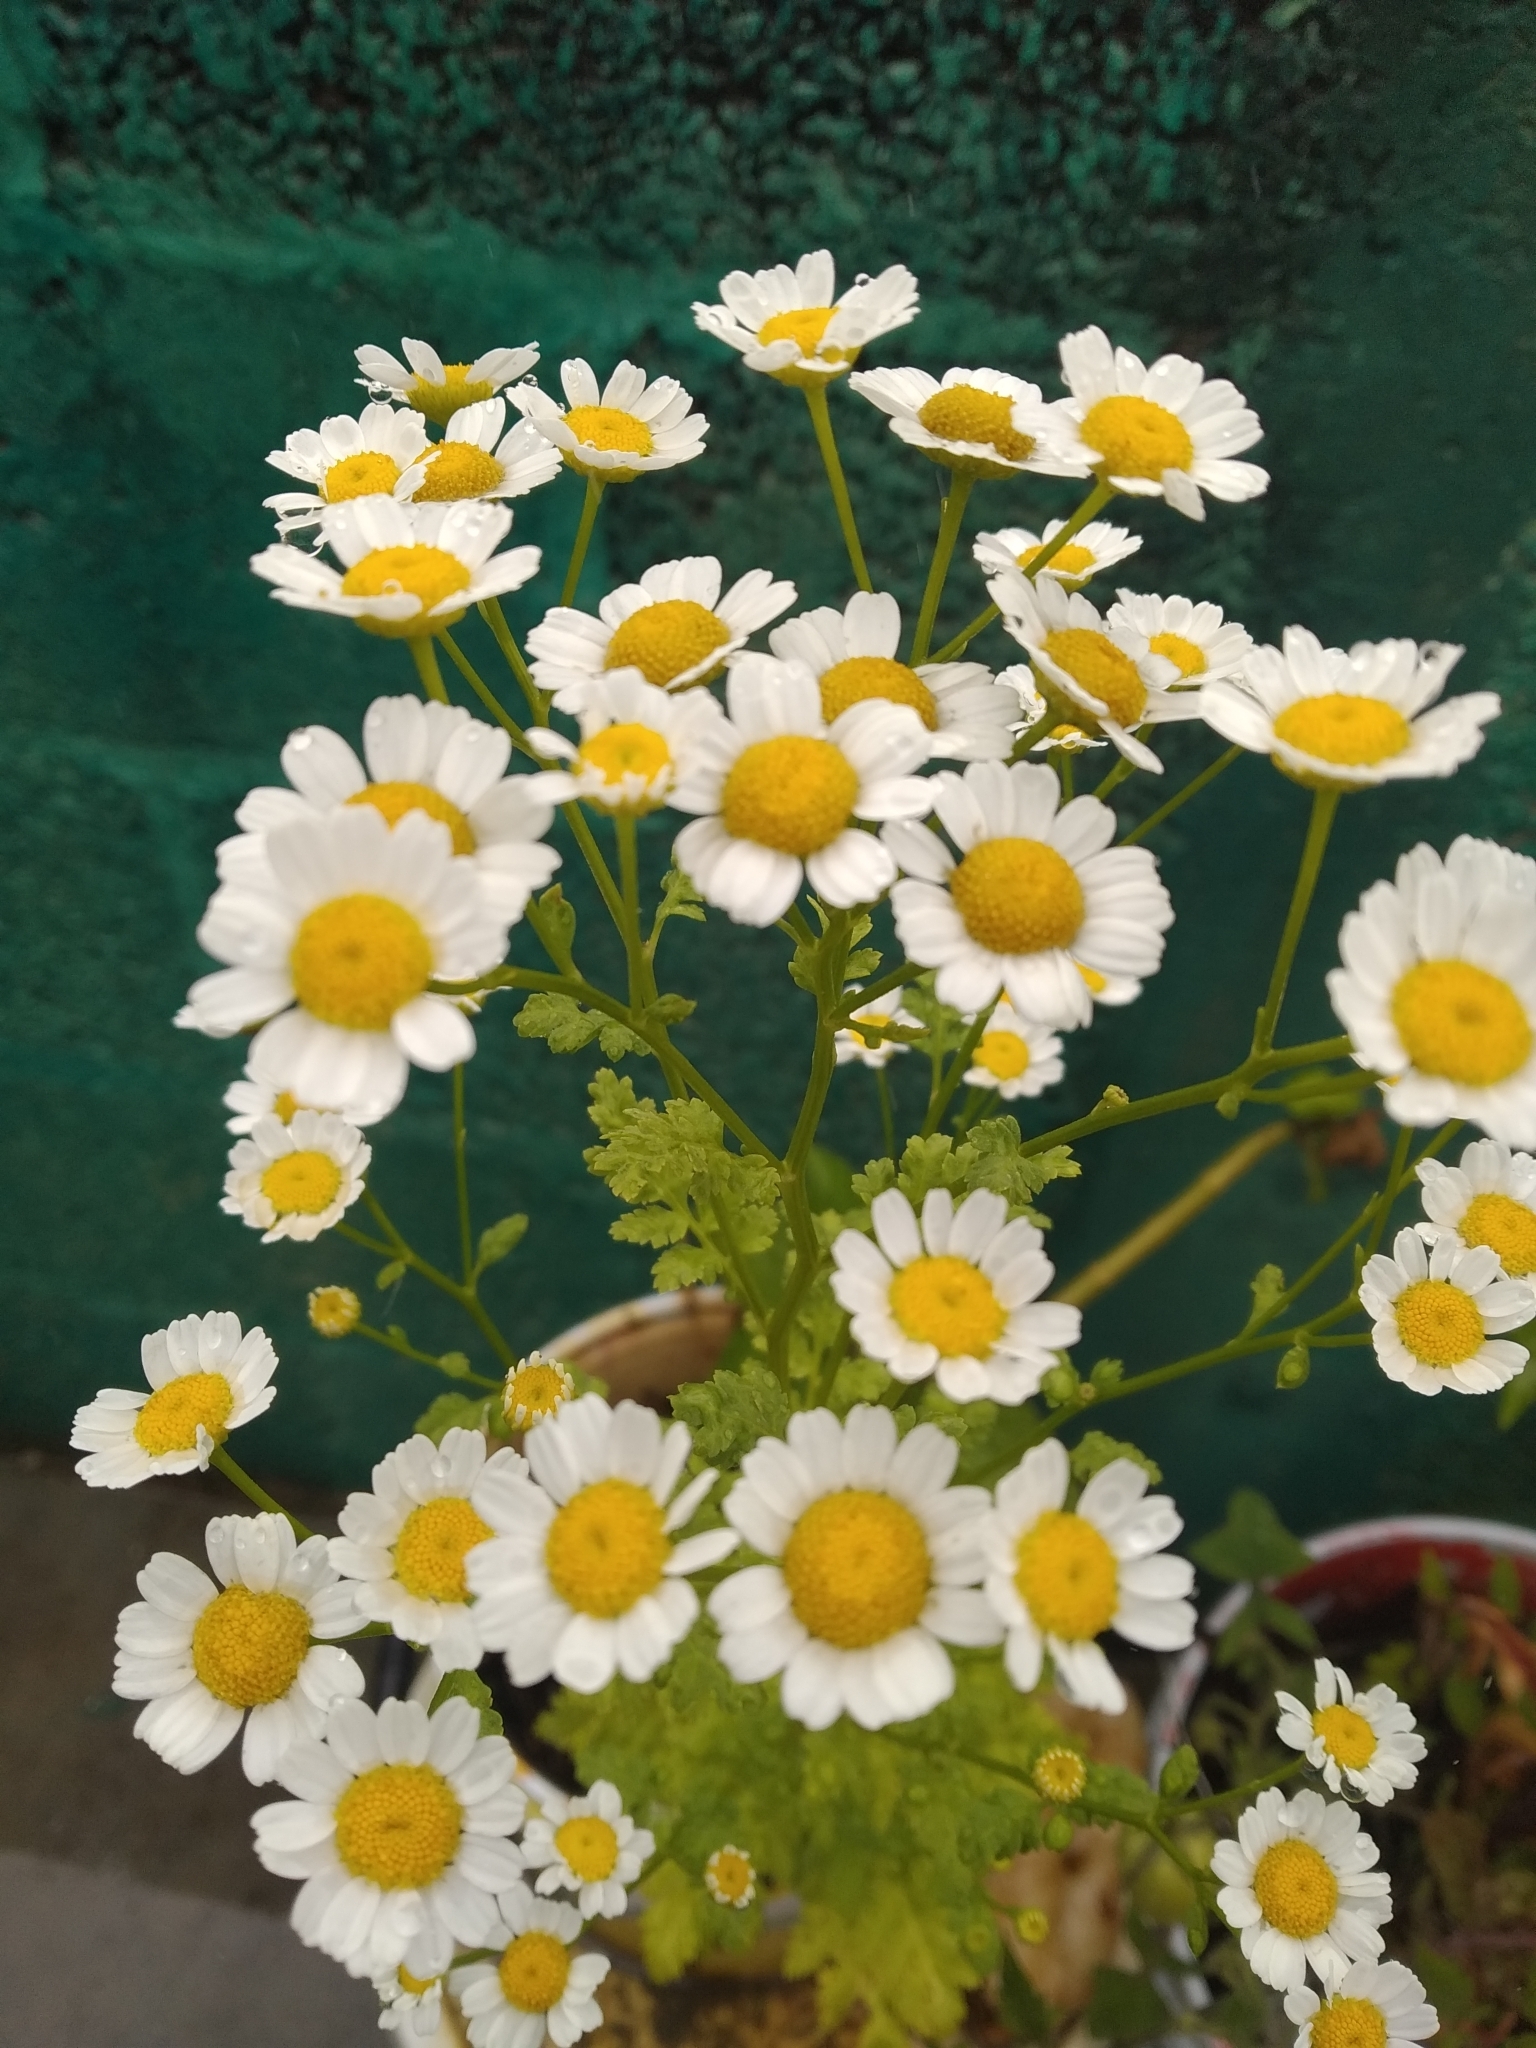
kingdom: Plantae
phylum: Tracheophyta
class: Magnoliopsida
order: Asterales
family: Asteraceae
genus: Tanacetum
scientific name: Tanacetum parthenium
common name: Feverfew
